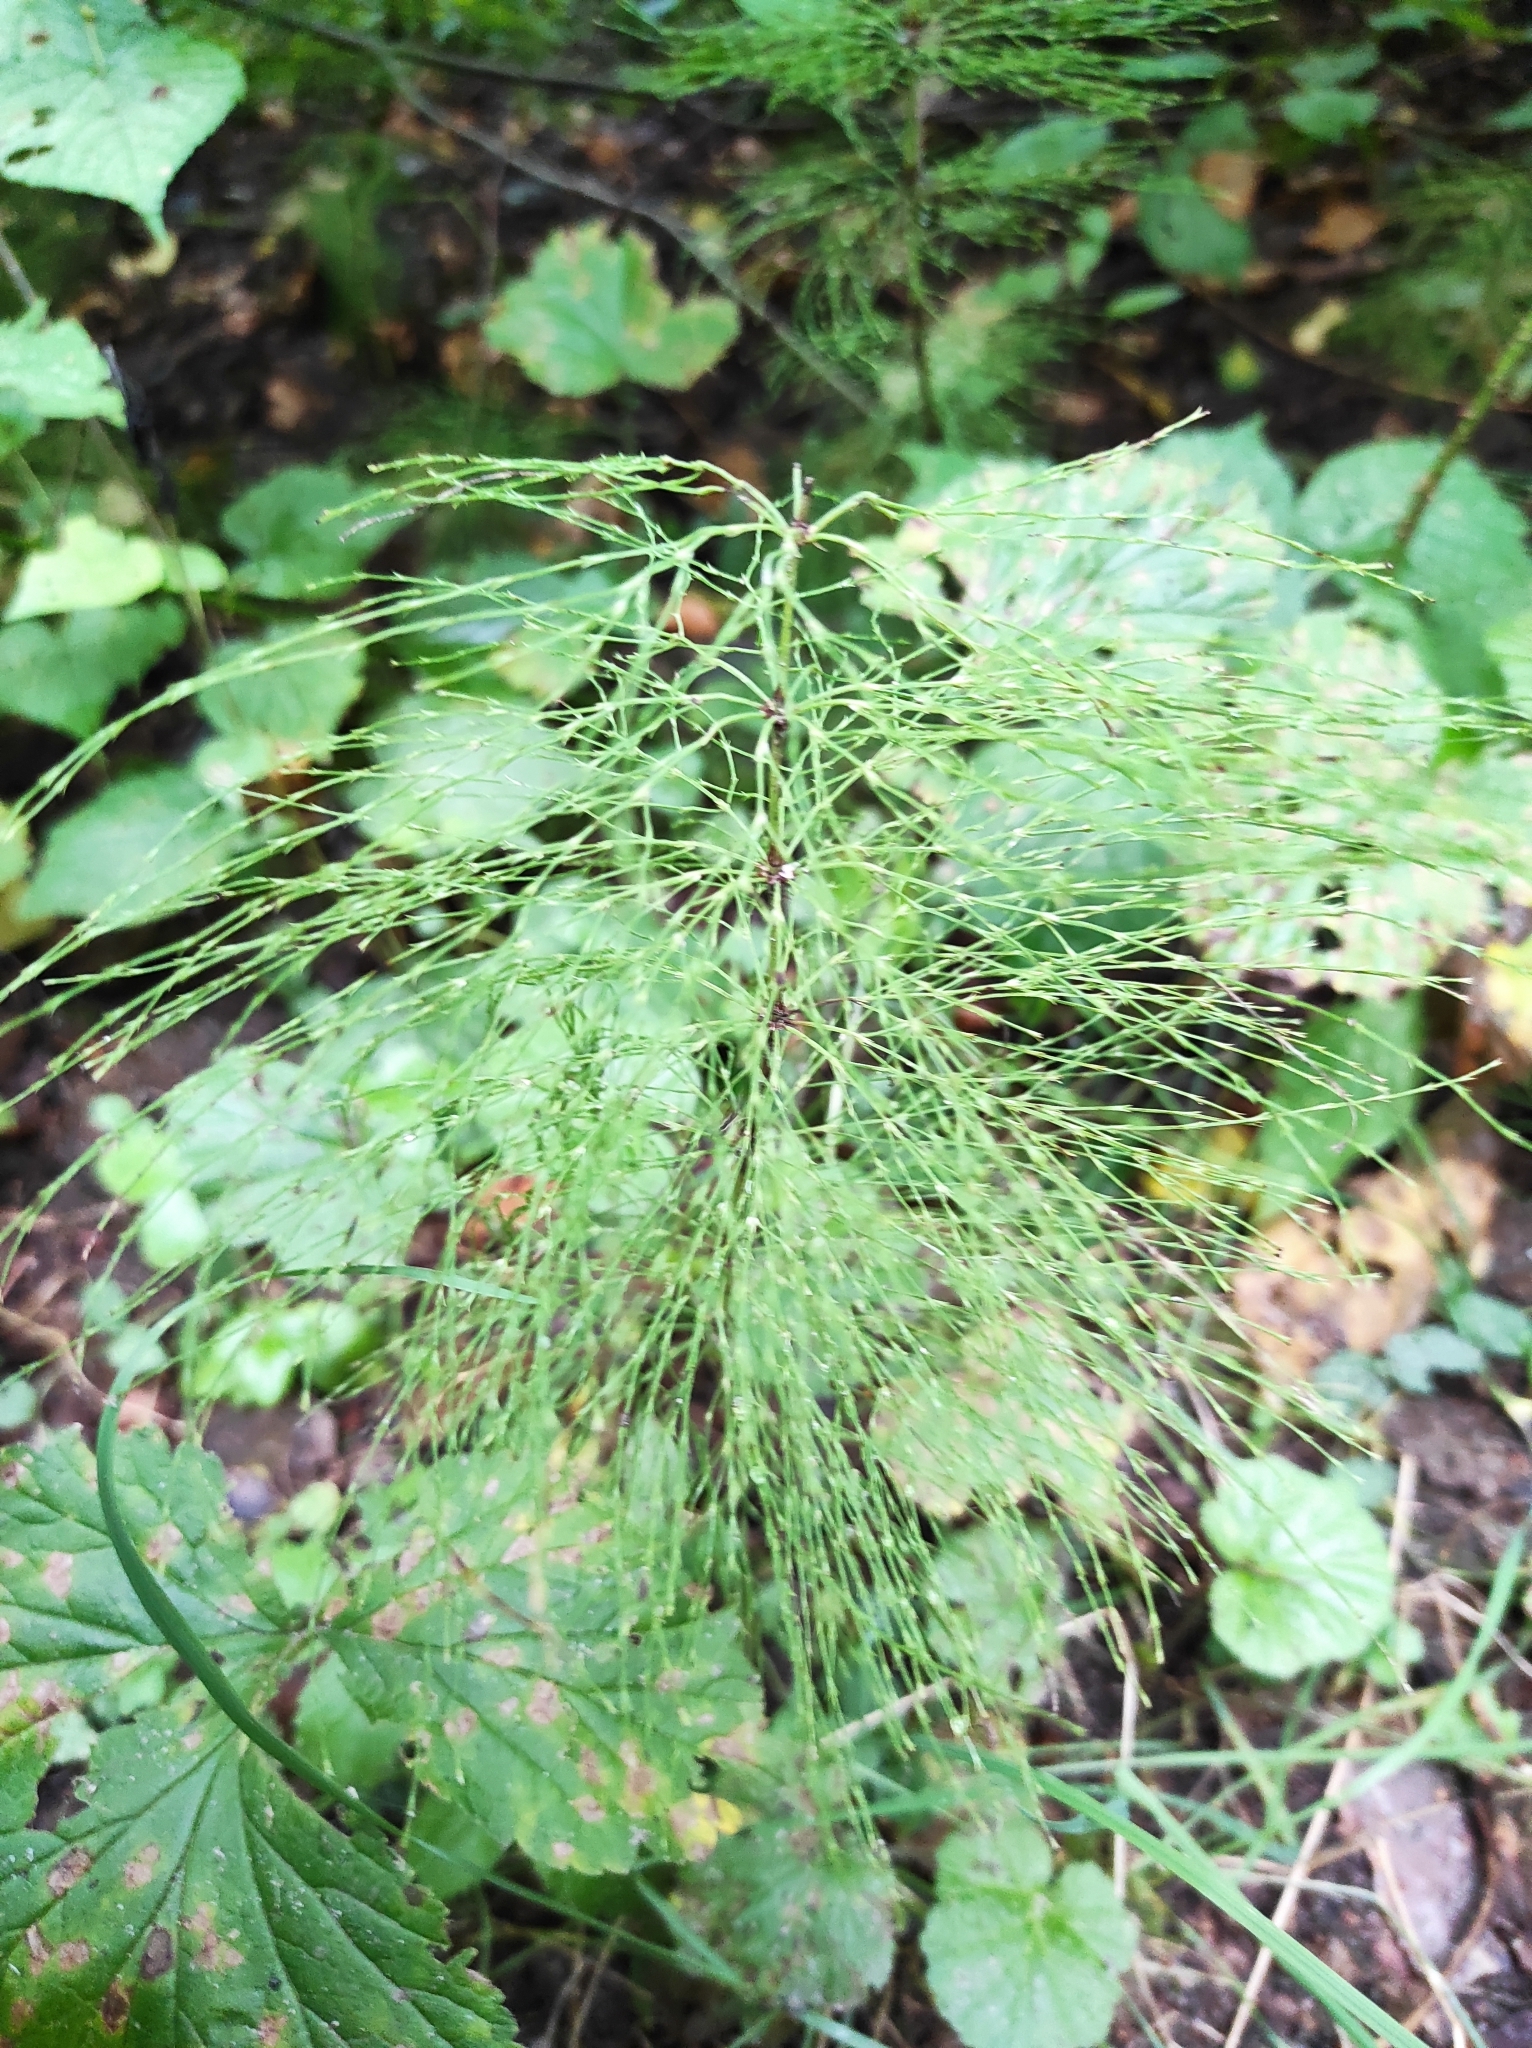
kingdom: Plantae
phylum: Tracheophyta
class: Polypodiopsida
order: Equisetales
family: Equisetaceae
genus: Equisetum
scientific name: Equisetum sylvaticum
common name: Wood horsetail
